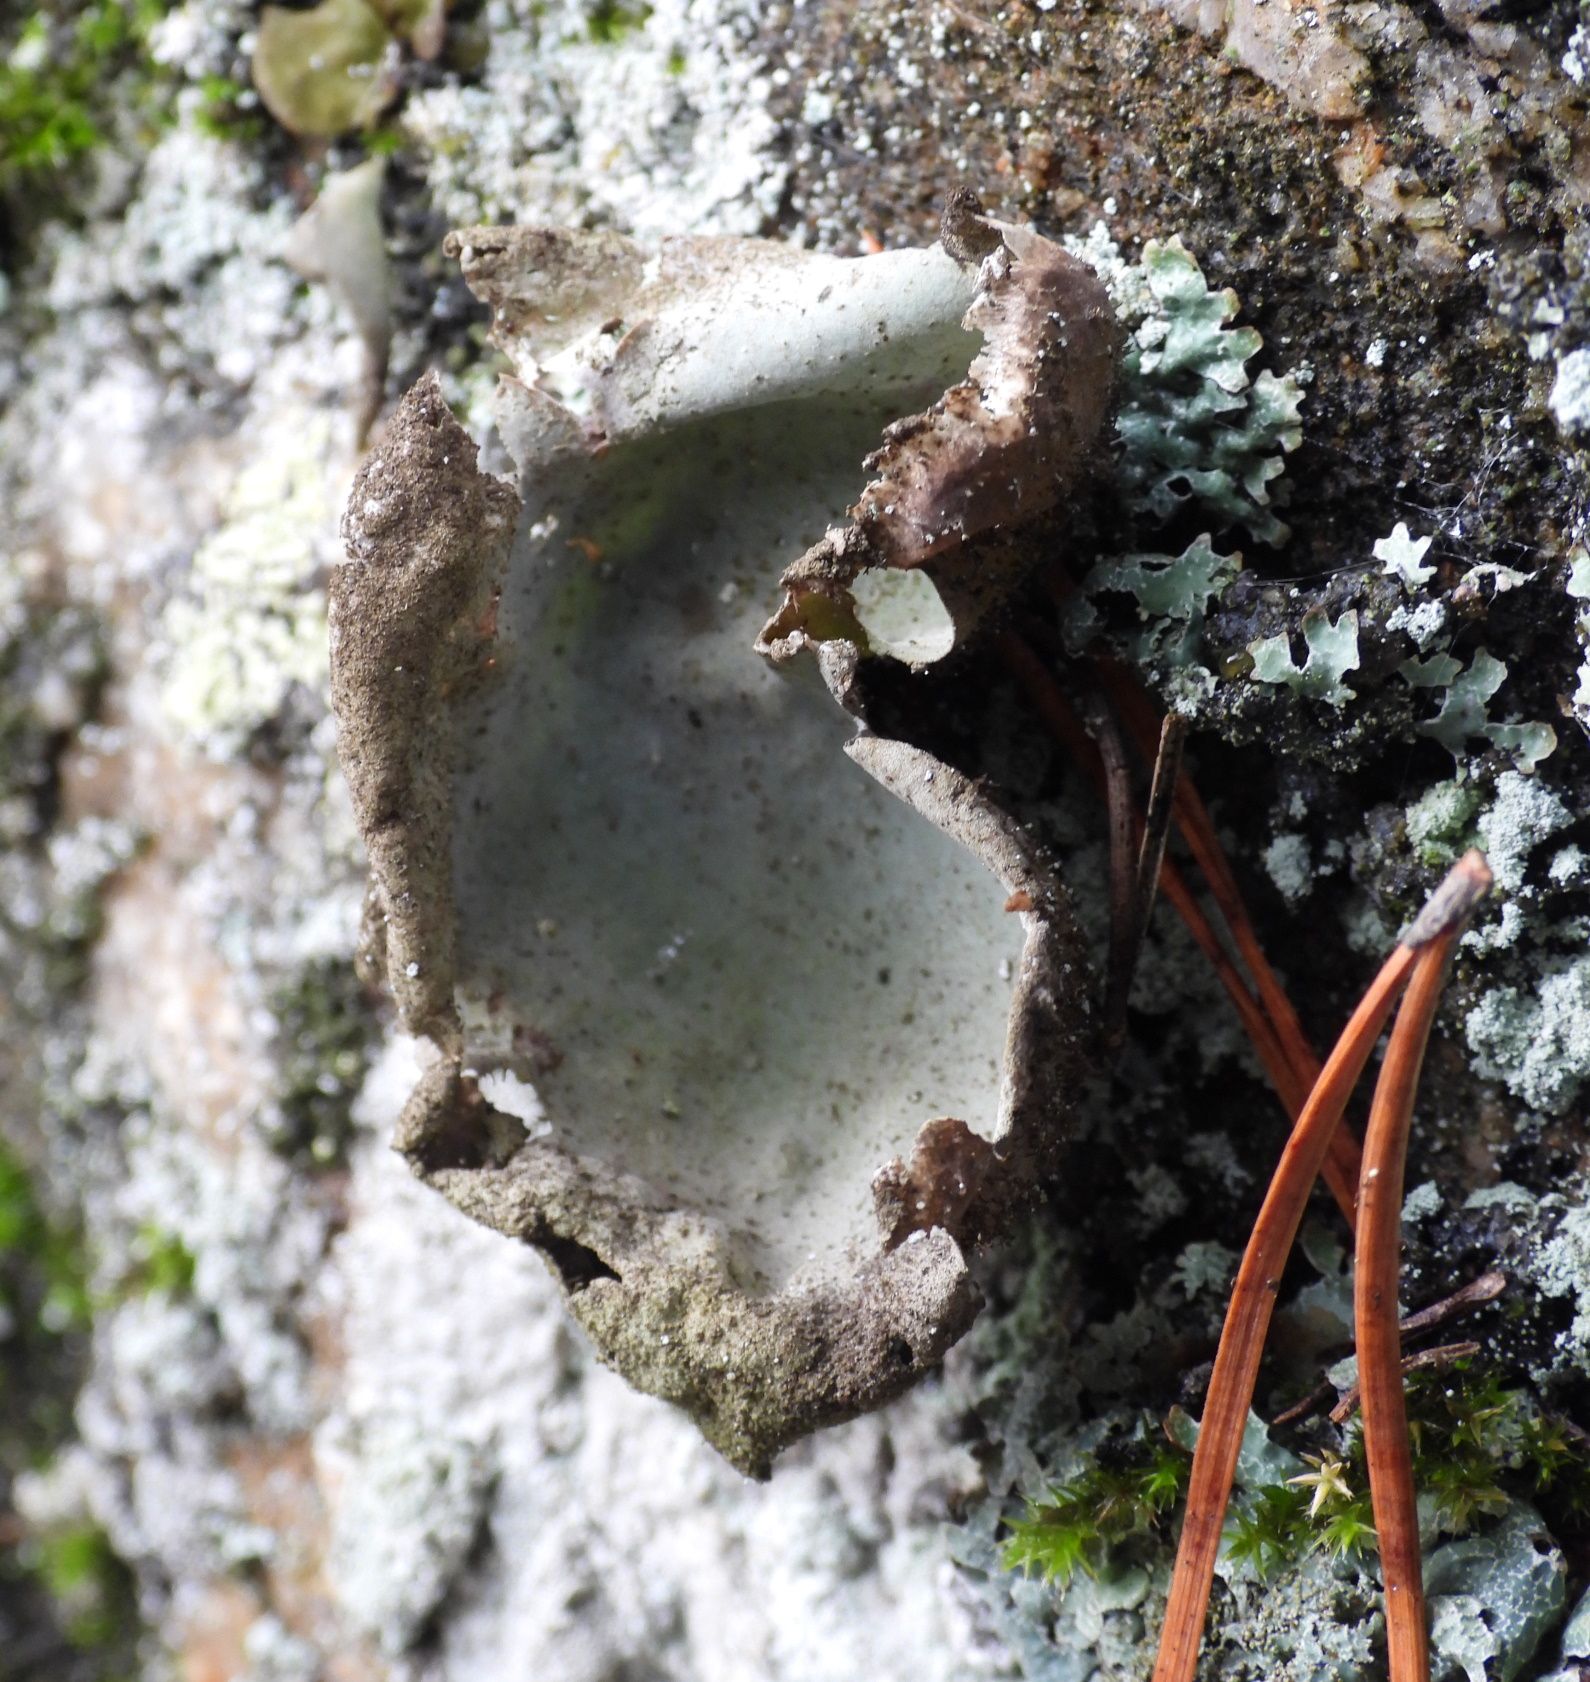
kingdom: Fungi
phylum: Ascomycota
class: Lecanoromycetes
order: Umbilicariales
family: Umbilicariaceae
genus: Umbilicaria
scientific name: Umbilicaria hirsuta
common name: Granulating rocktripe lichen
